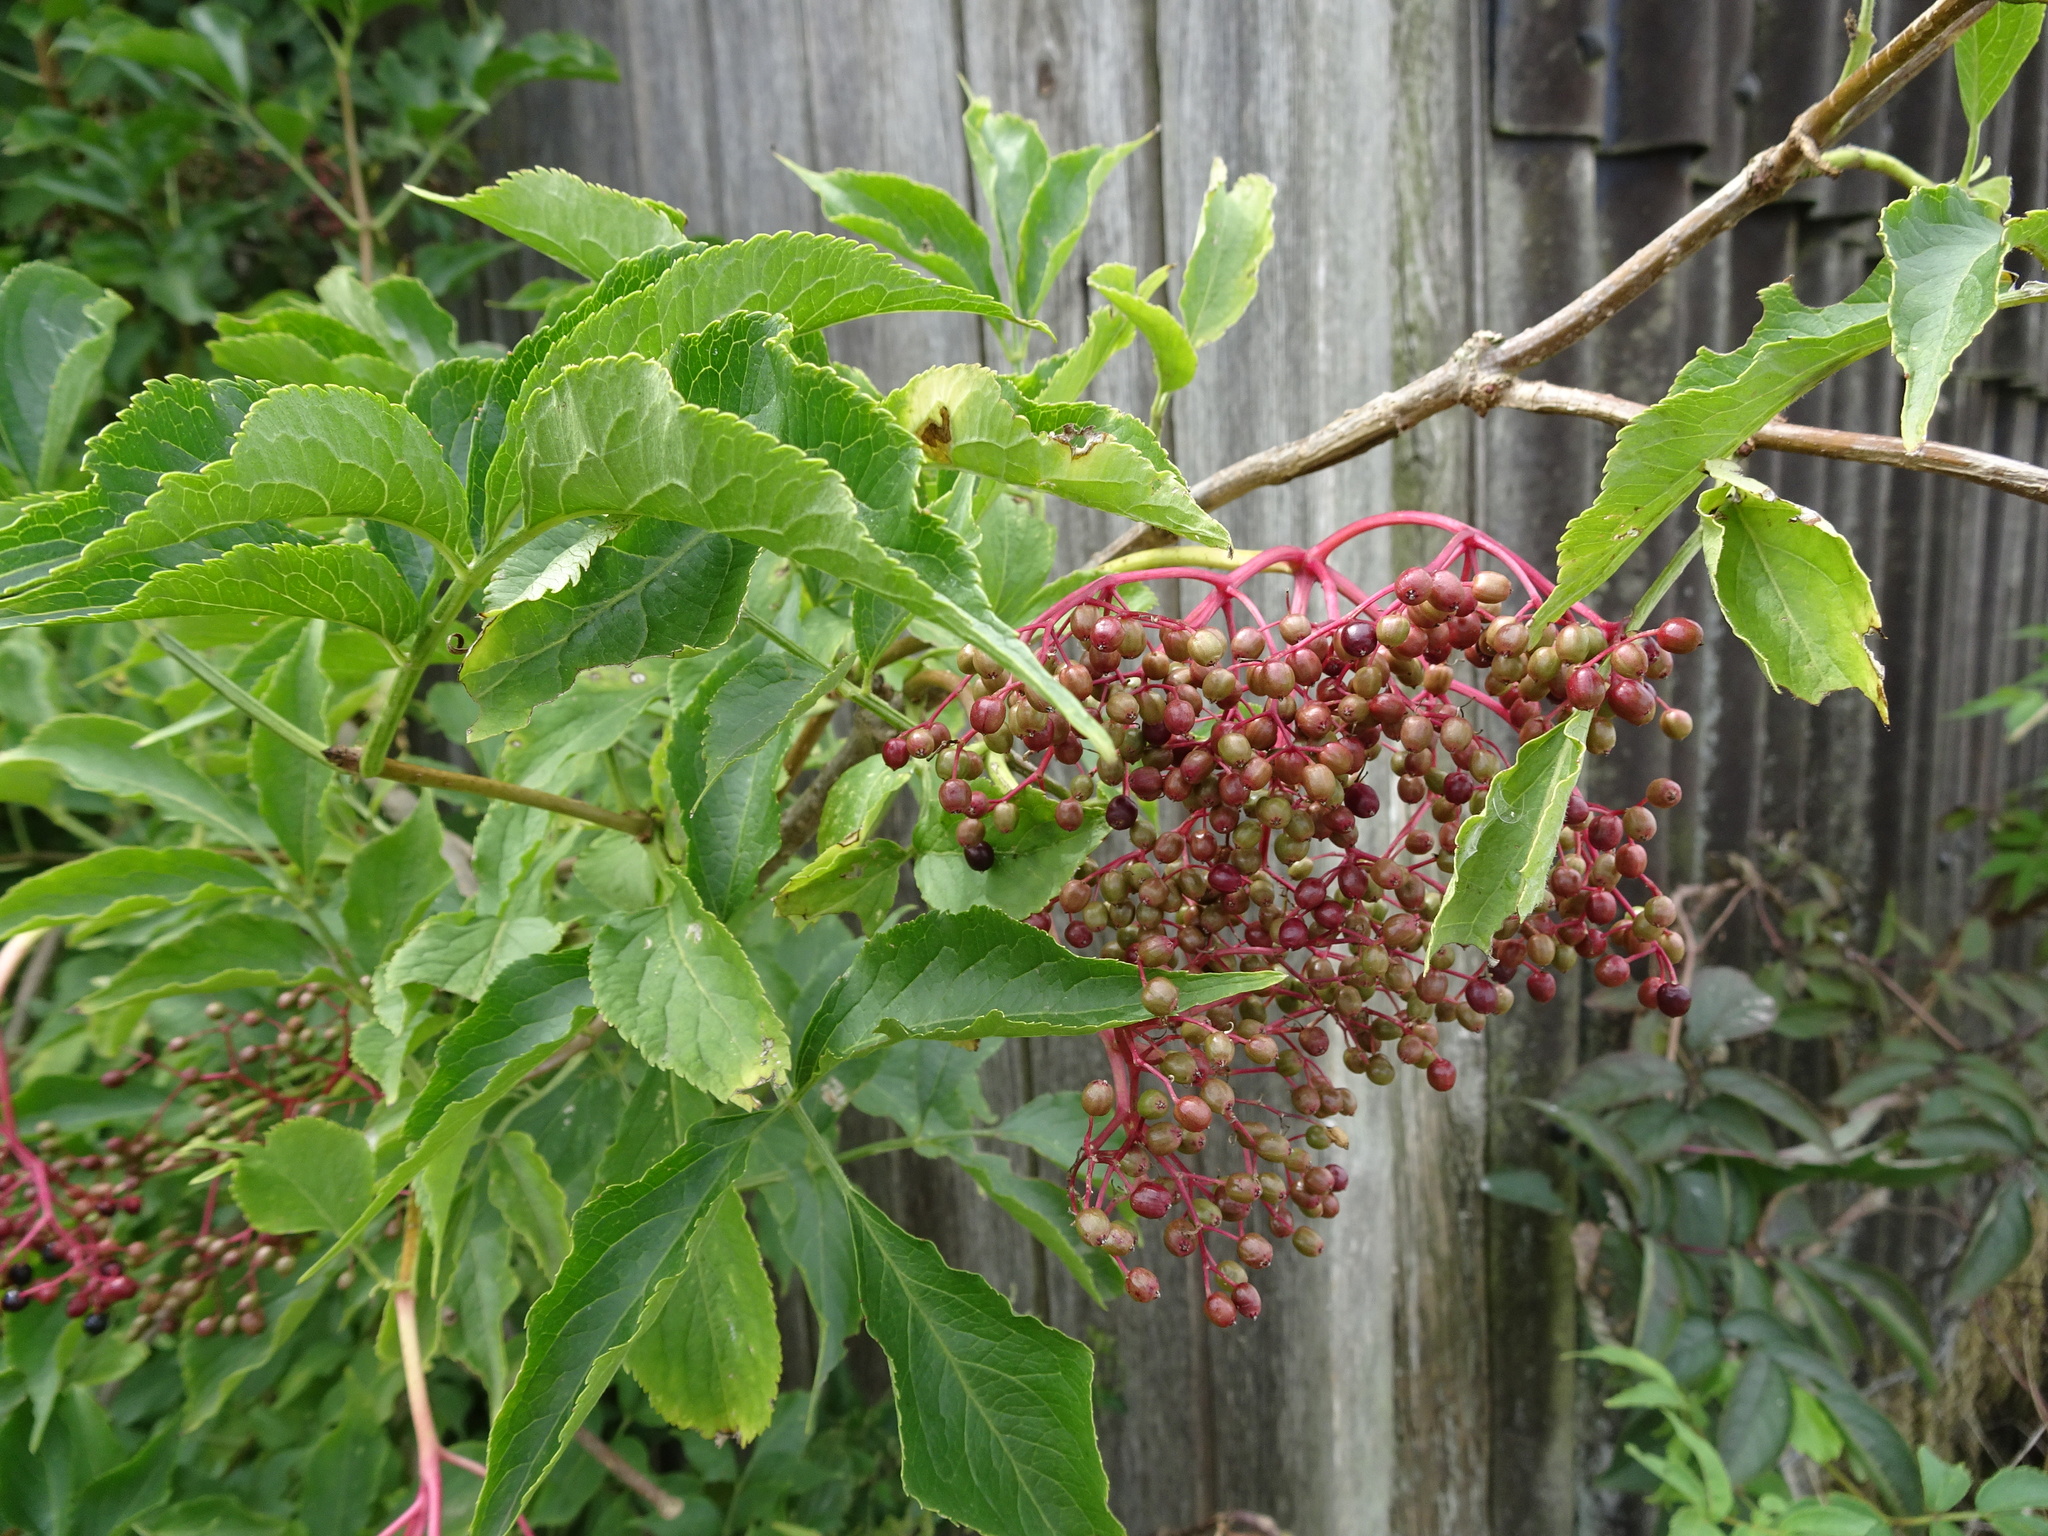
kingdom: Plantae
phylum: Tracheophyta
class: Magnoliopsida
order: Dipsacales
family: Viburnaceae
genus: Sambucus
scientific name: Sambucus nigra
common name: Elder
